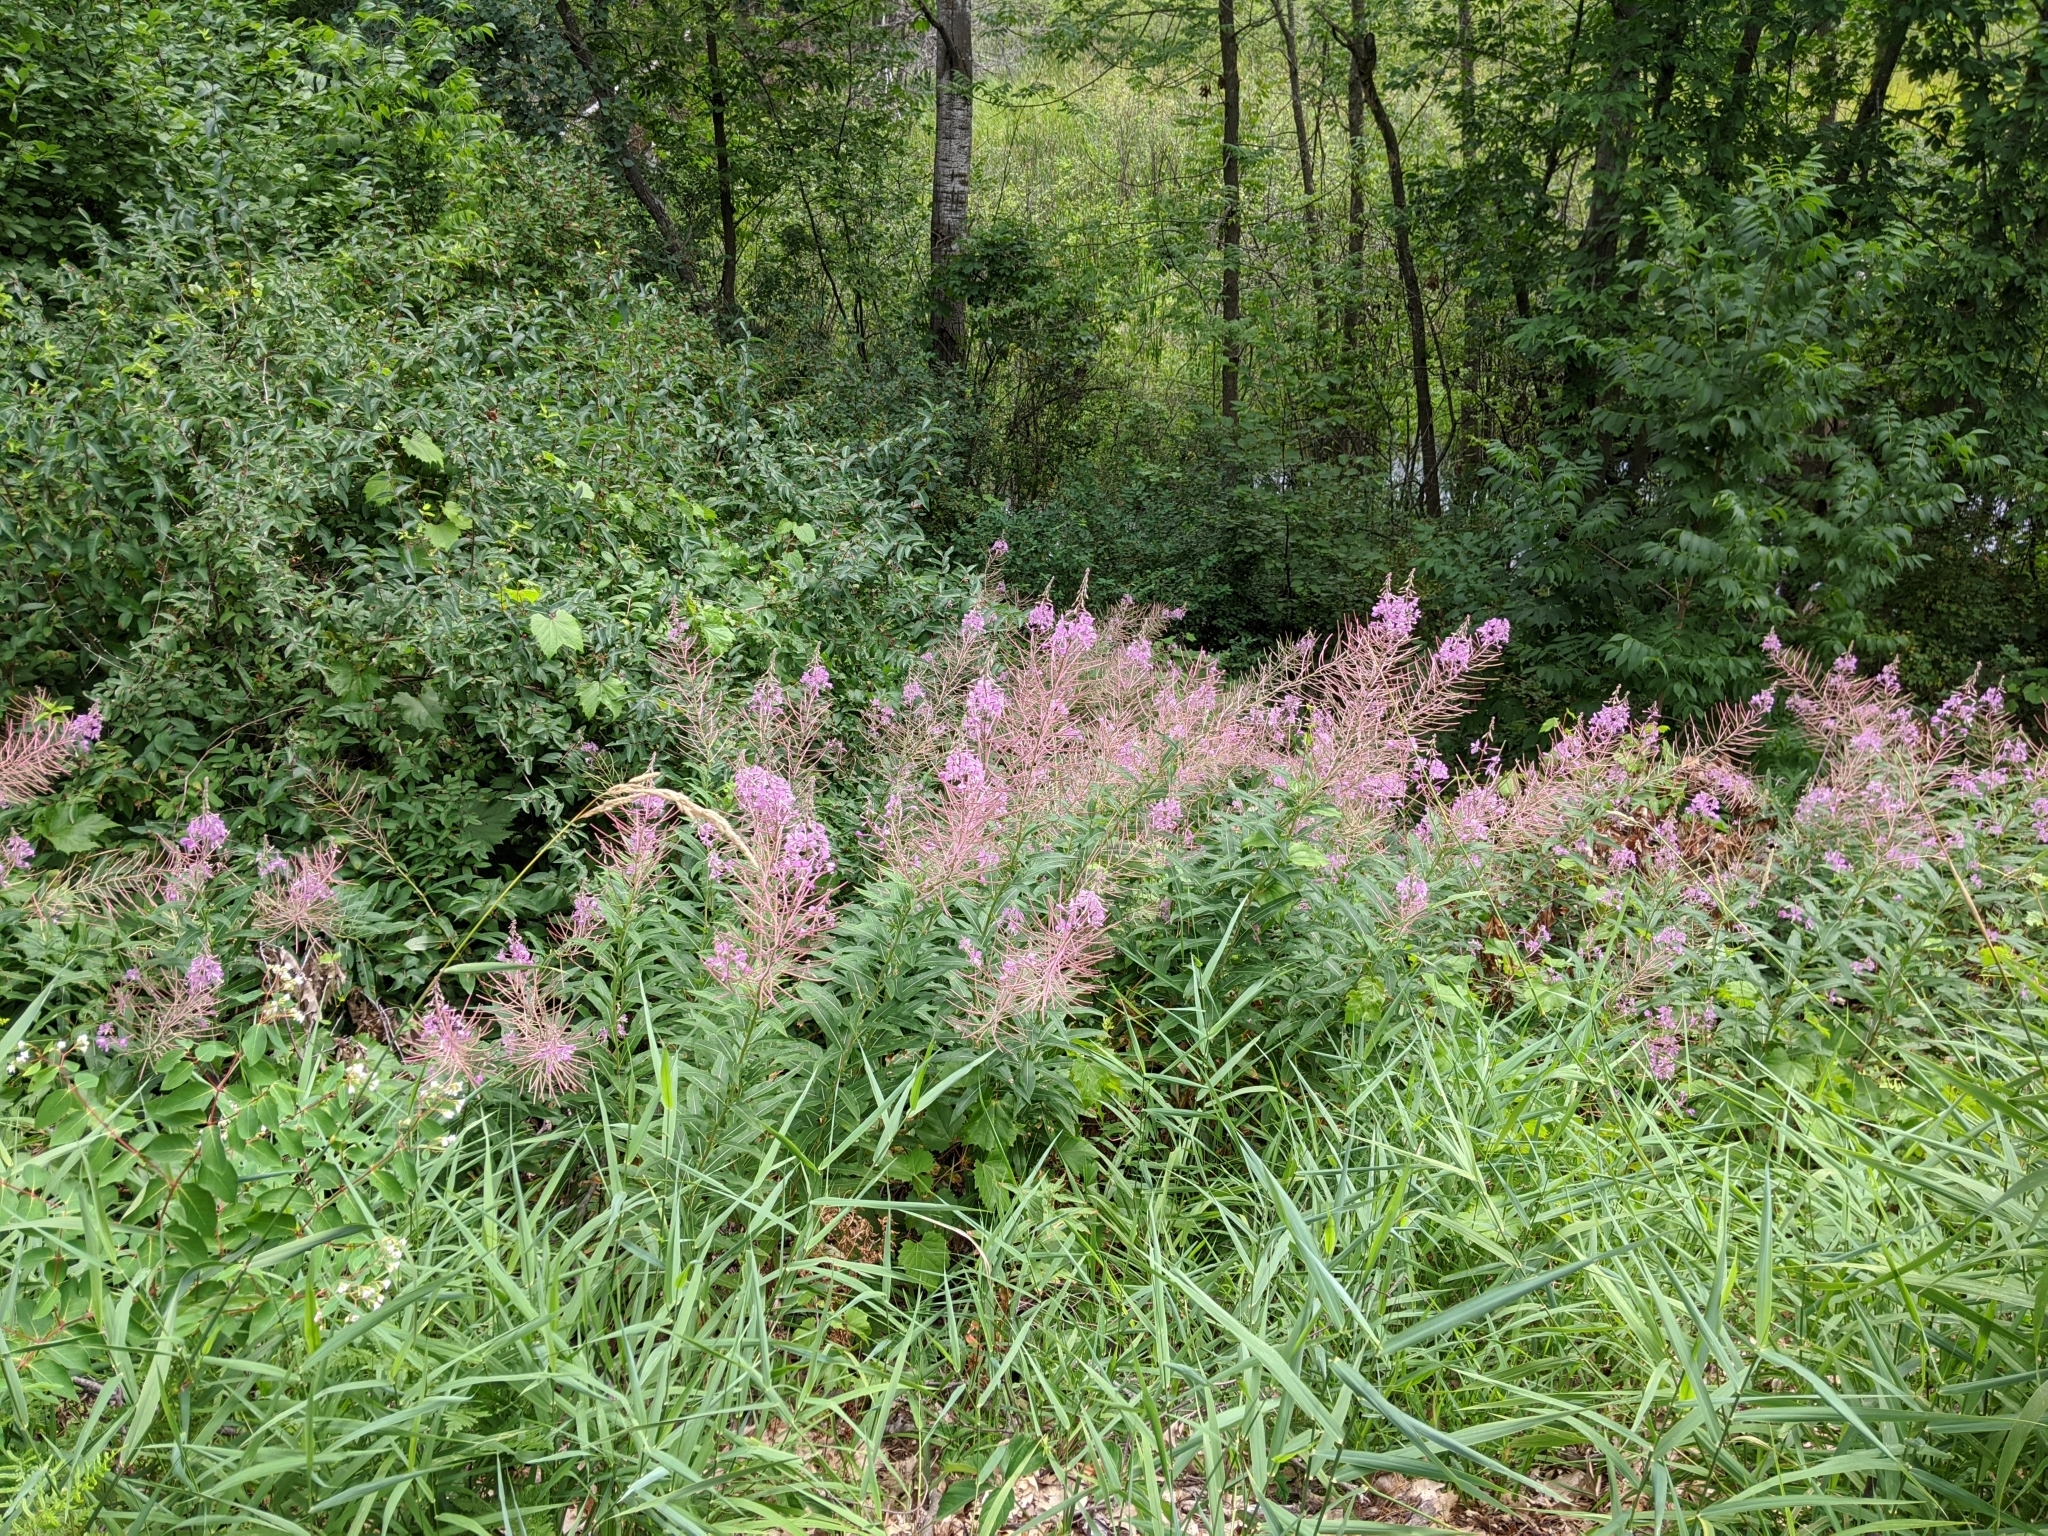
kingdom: Plantae
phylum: Tracheophyta
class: Magnoliopsida
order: Myrtales
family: Onagraceae
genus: Chamaenerion
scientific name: Chamaenerion angustifolium
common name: Fireweed
